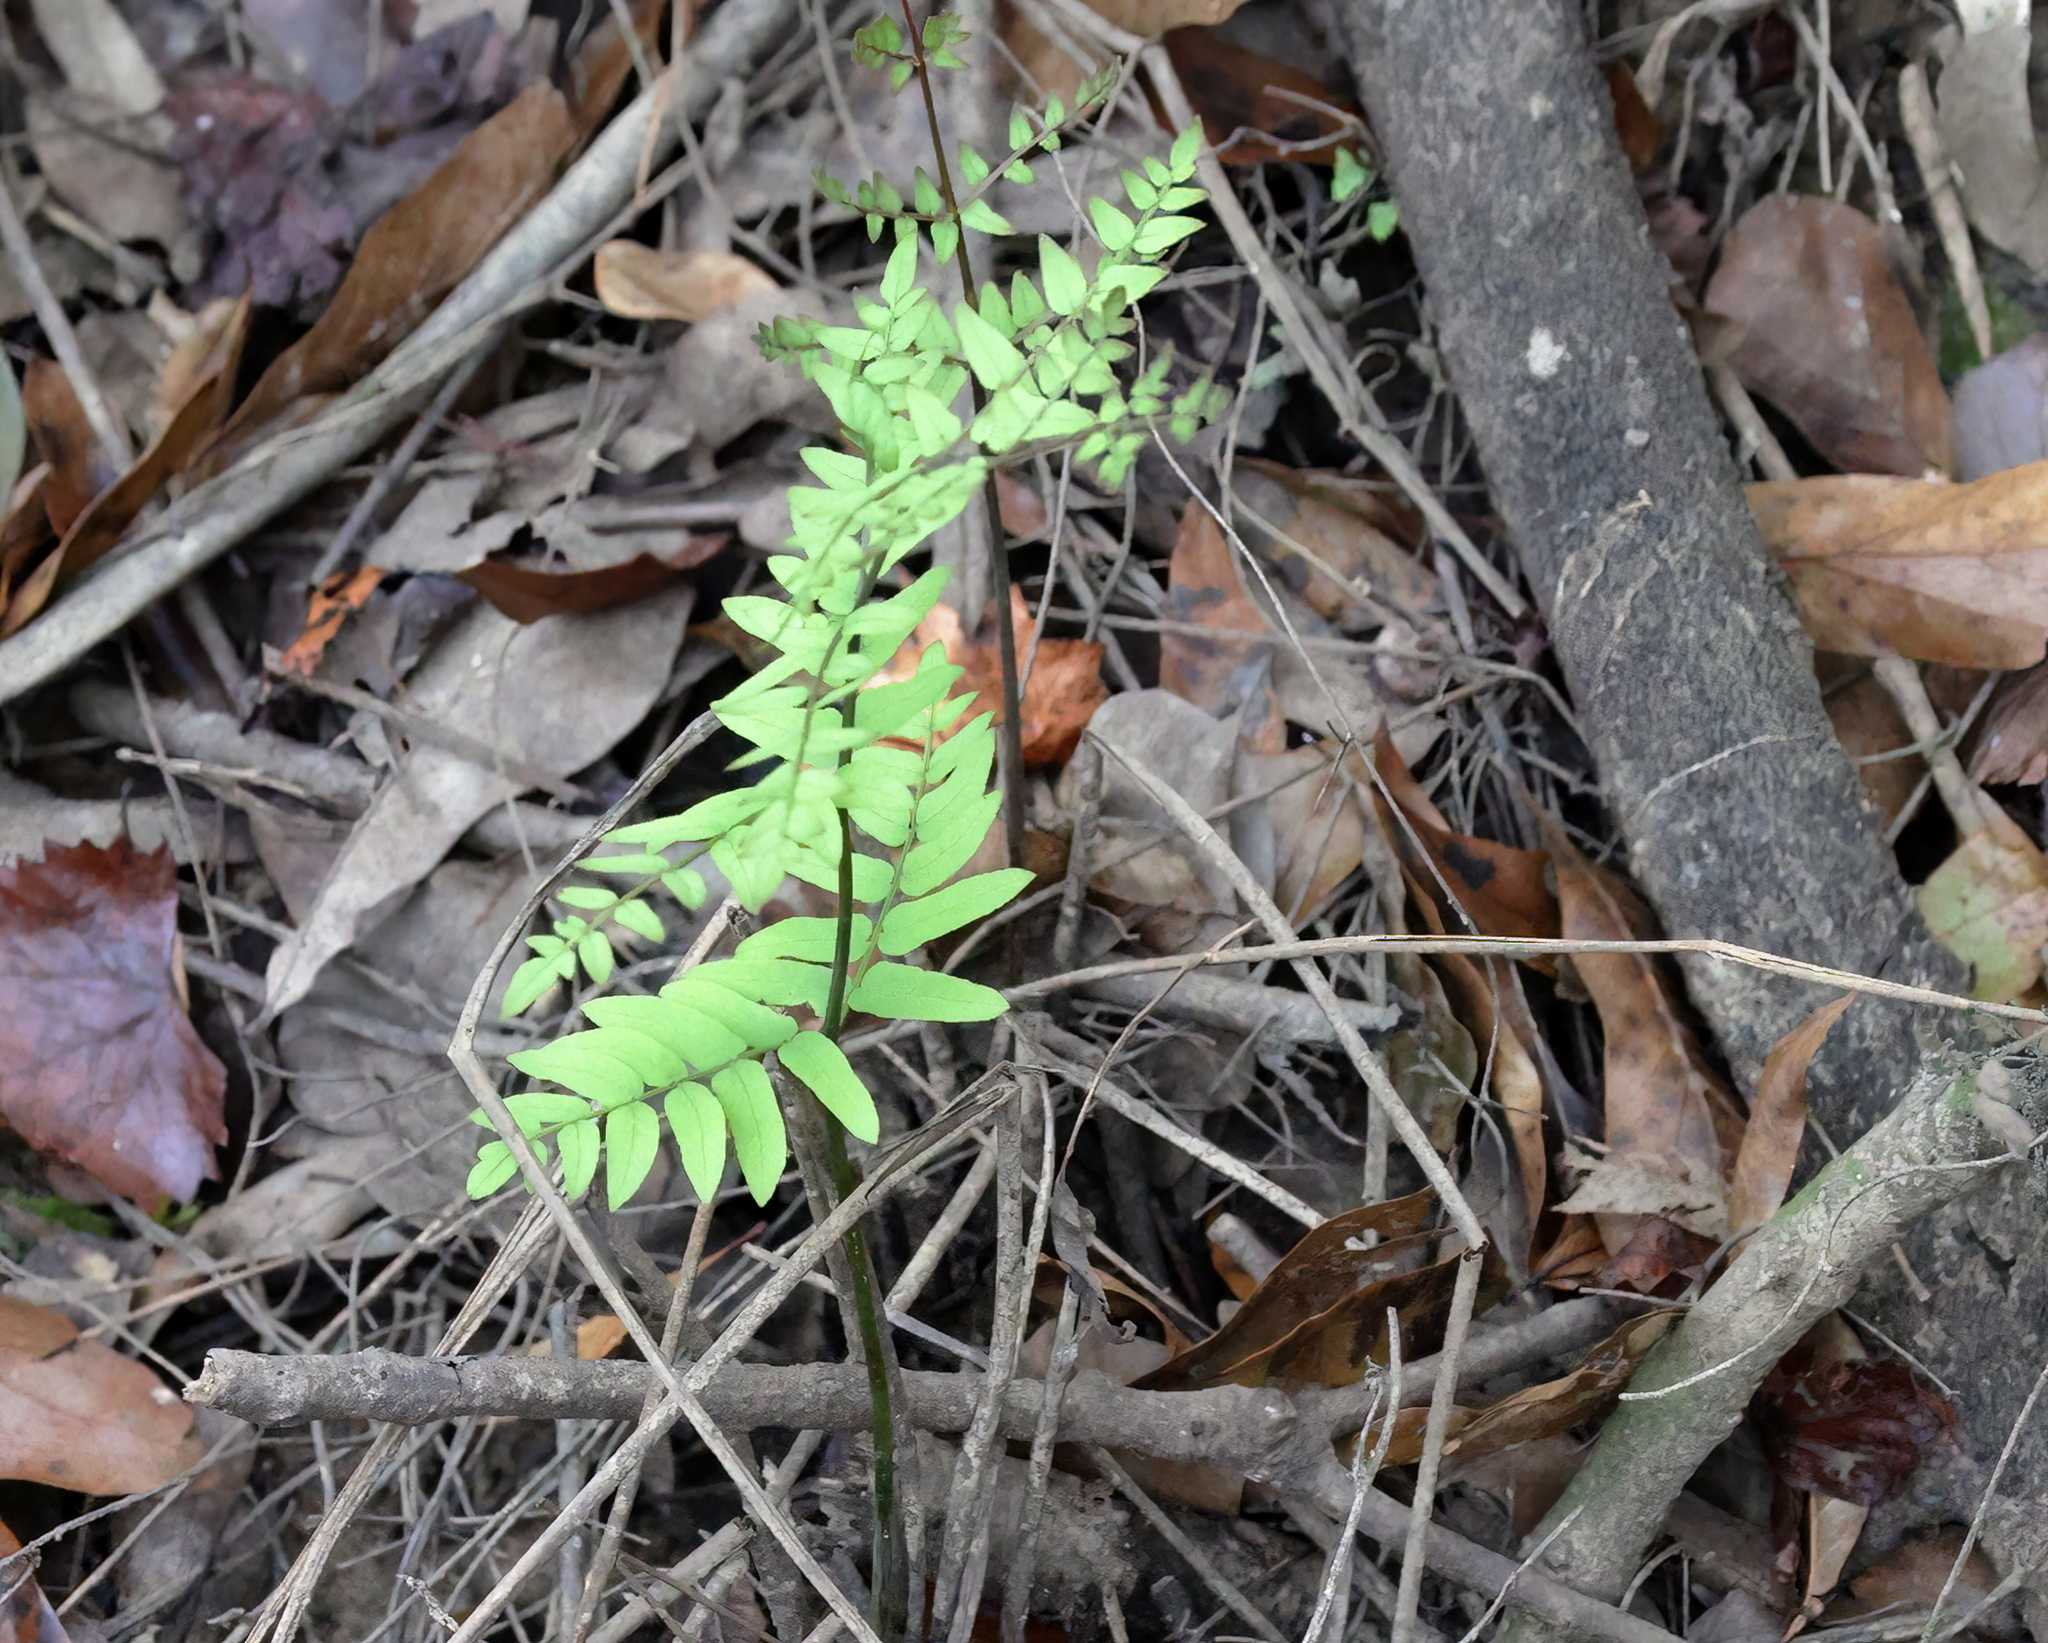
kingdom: Plantae
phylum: Tracheophyta
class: Polypodiopsida
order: Osmundales
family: Osmundaceae
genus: Osmunda
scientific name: Osmunda spectabilis
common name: American royal fern
